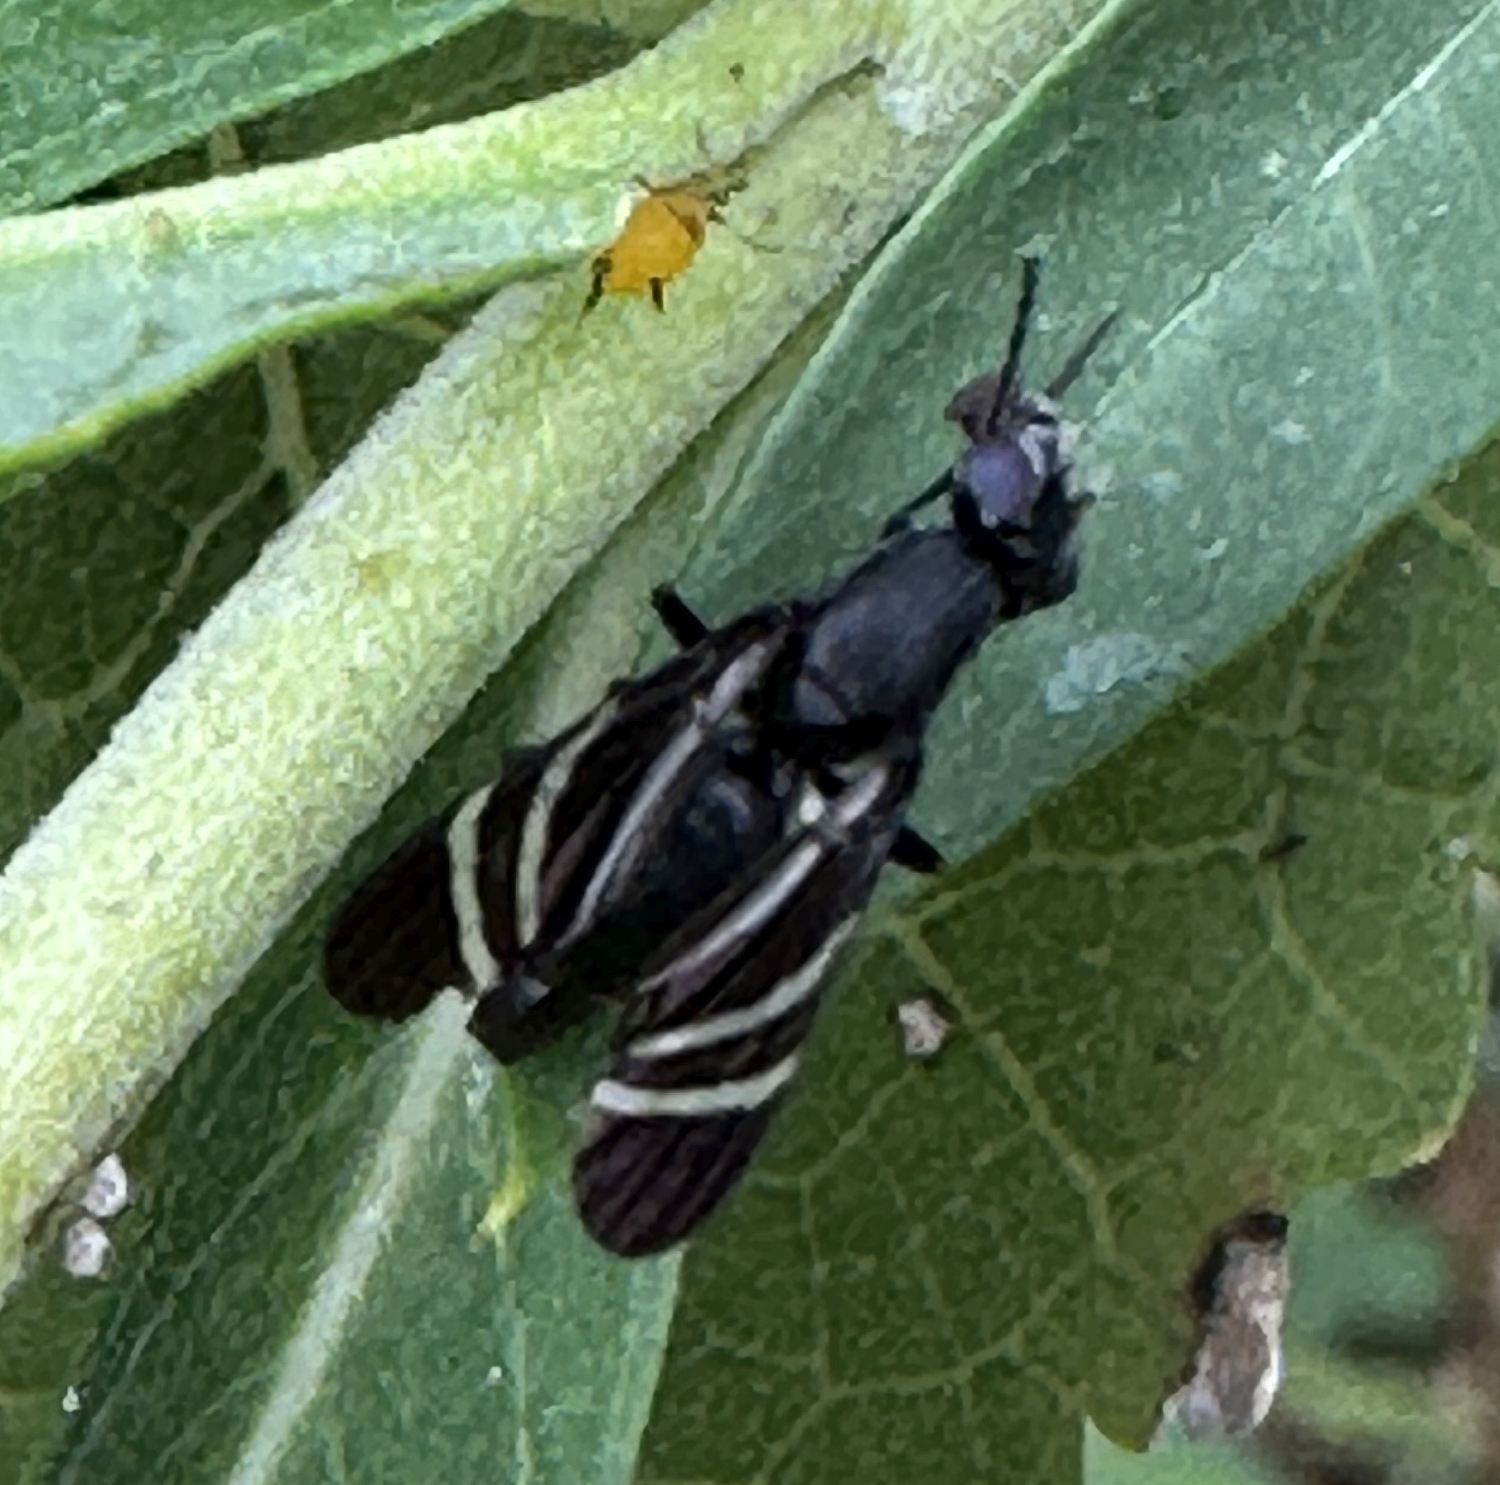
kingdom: Animalia
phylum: Arthropoda
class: Insecta
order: Diptera
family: Ulidiidae
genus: Tritoxa
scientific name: Tritoxa flexa
